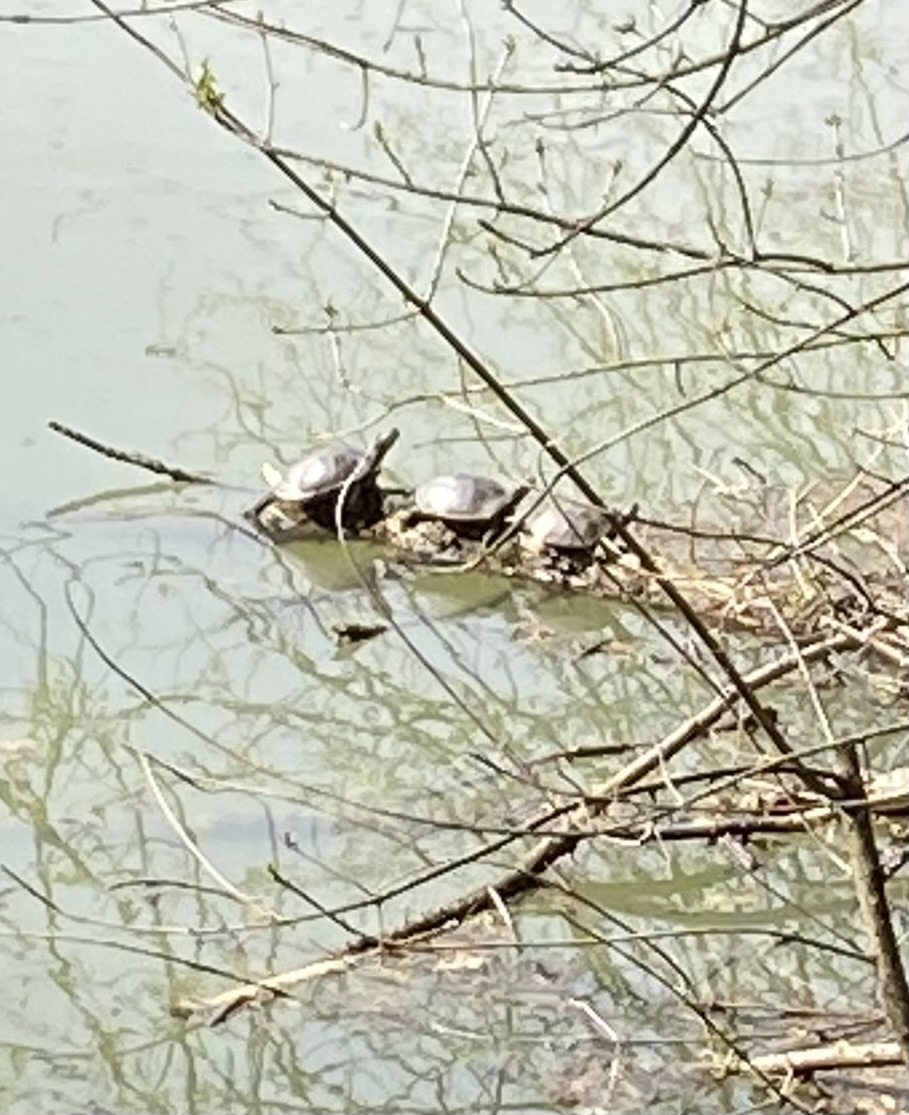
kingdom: Animalia
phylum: Chordata
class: Testudines
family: Emydidae
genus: Emys
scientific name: Emys orbicularis
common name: European pond turtle
